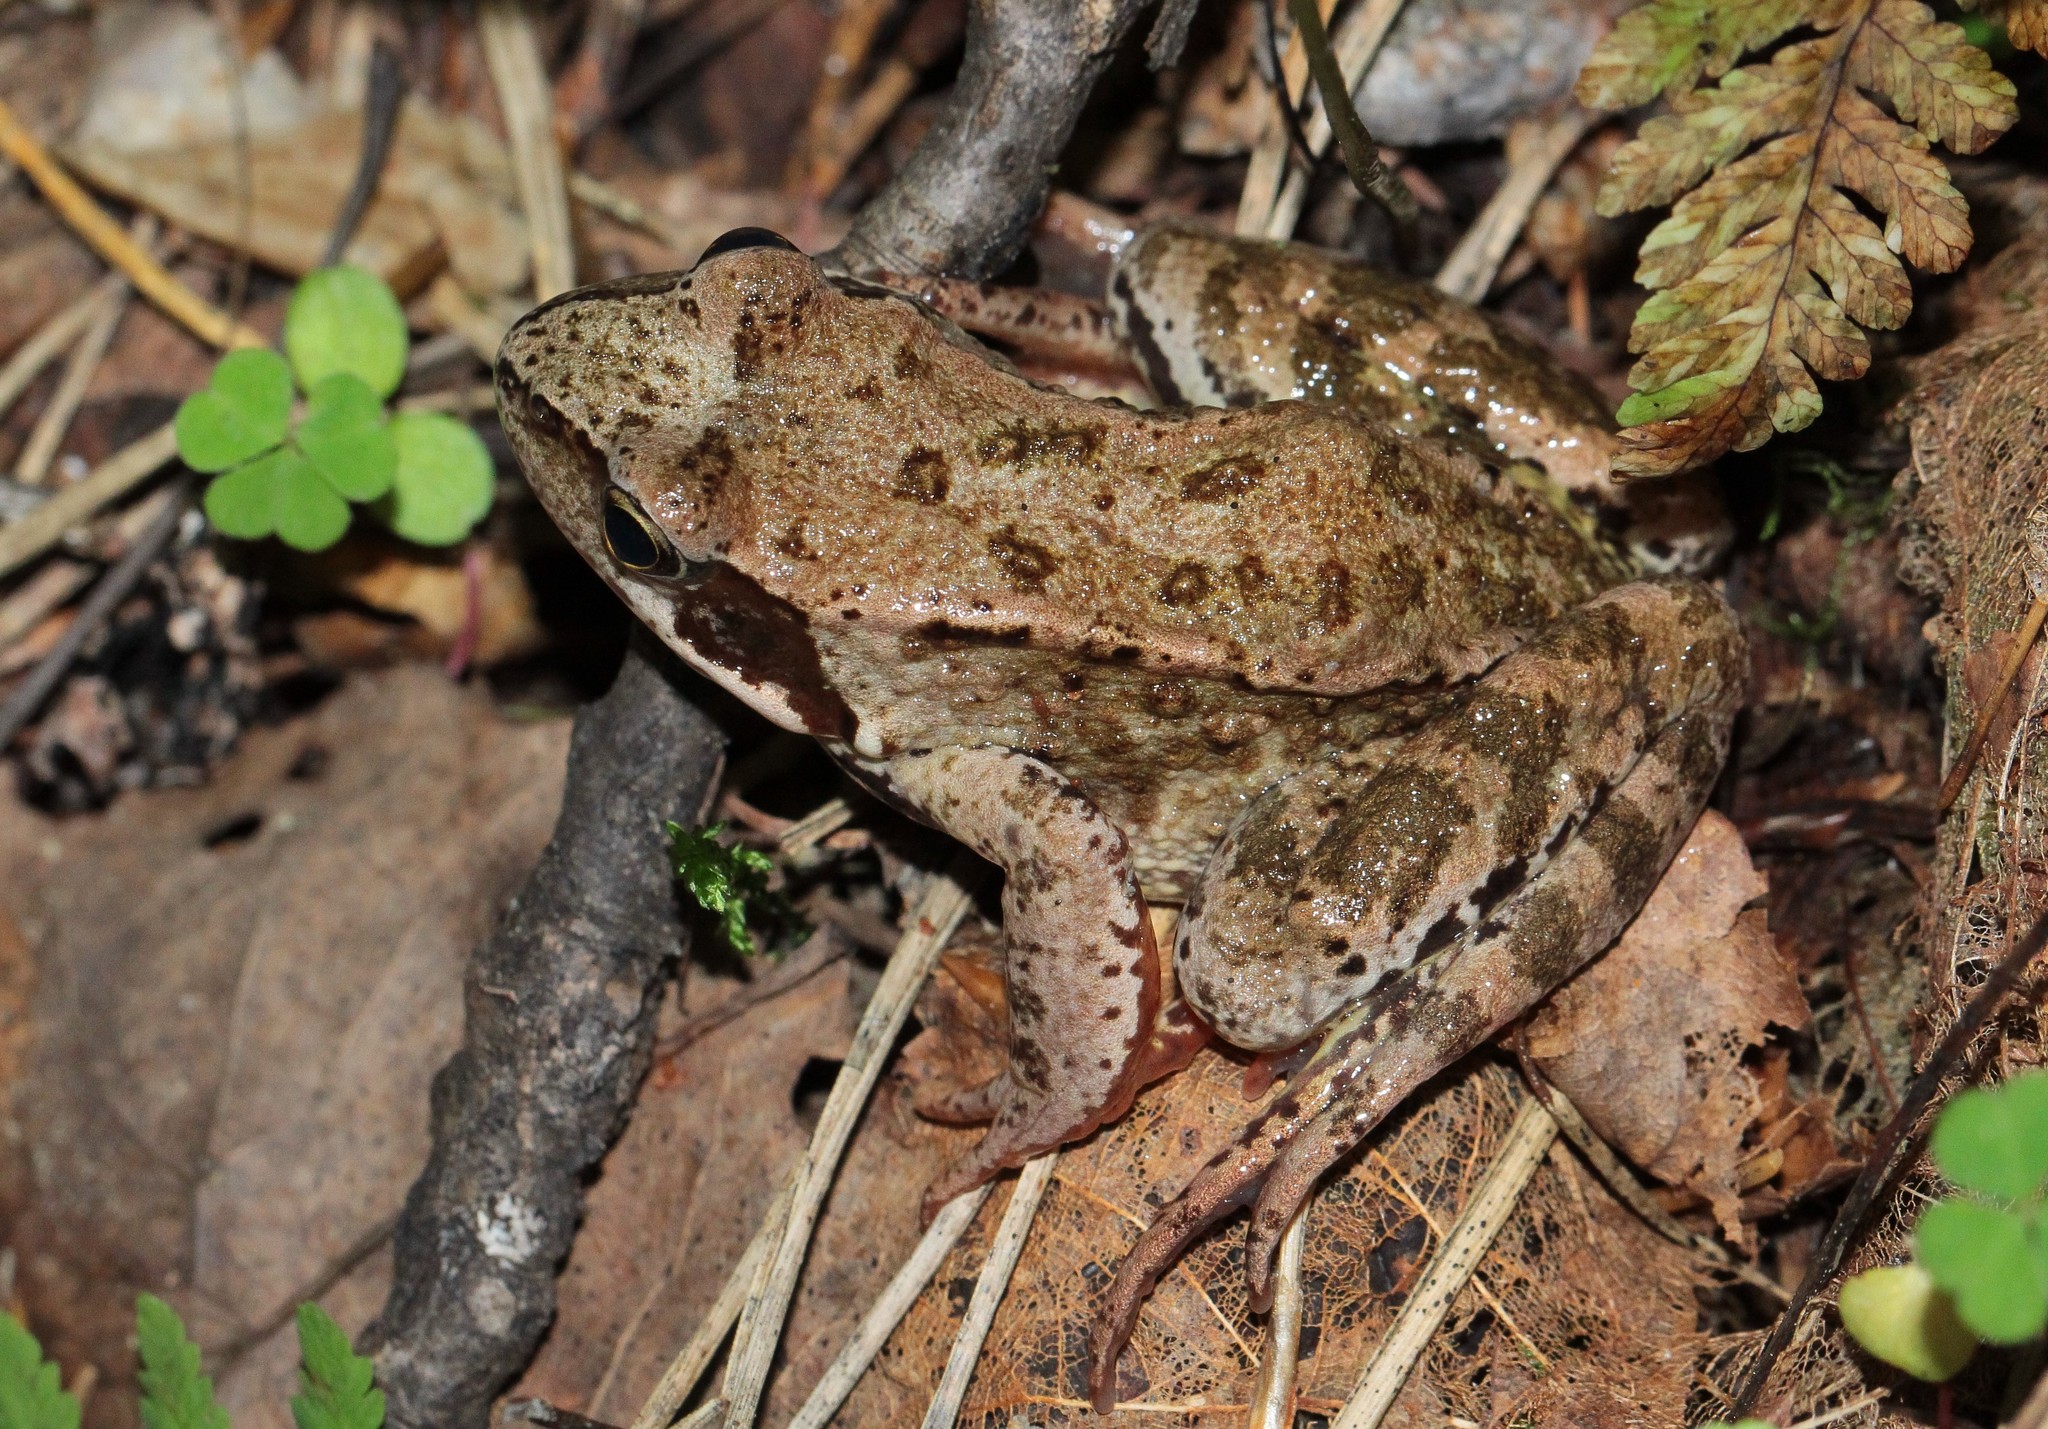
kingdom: Animalia
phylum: Chordata
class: Amphibia
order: Anura
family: Ranidae
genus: Rana
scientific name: Rana temporaria
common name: Common frog
